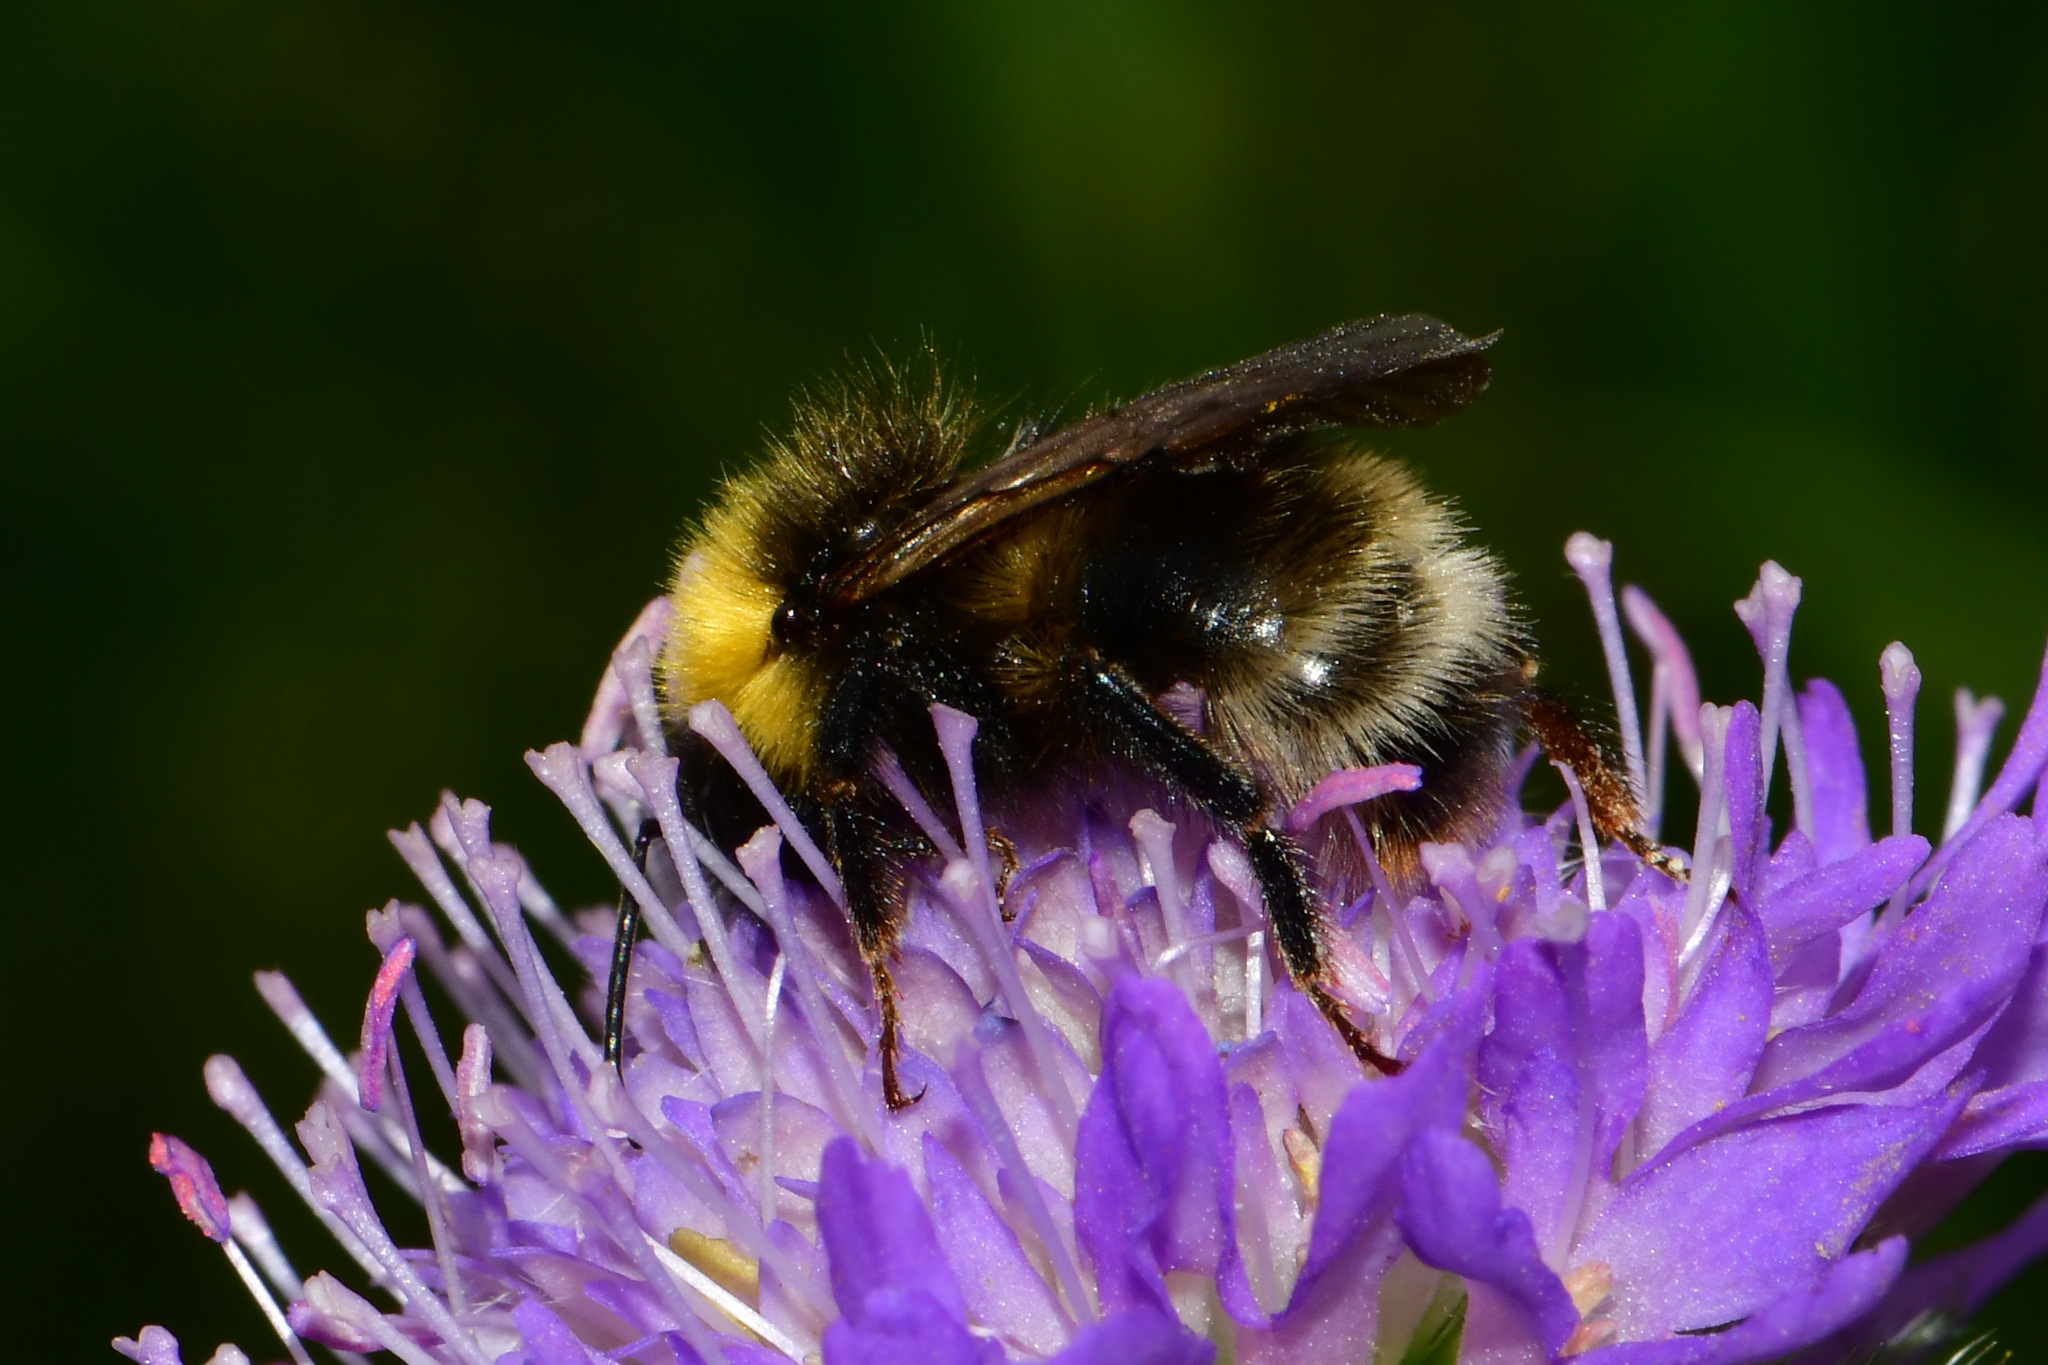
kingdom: Animalia
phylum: Arthropoda
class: Insecta
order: Hymenoptera
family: Apidae
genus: Bombus
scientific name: Bombus sylvestris
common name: Forest cuckoo bee
